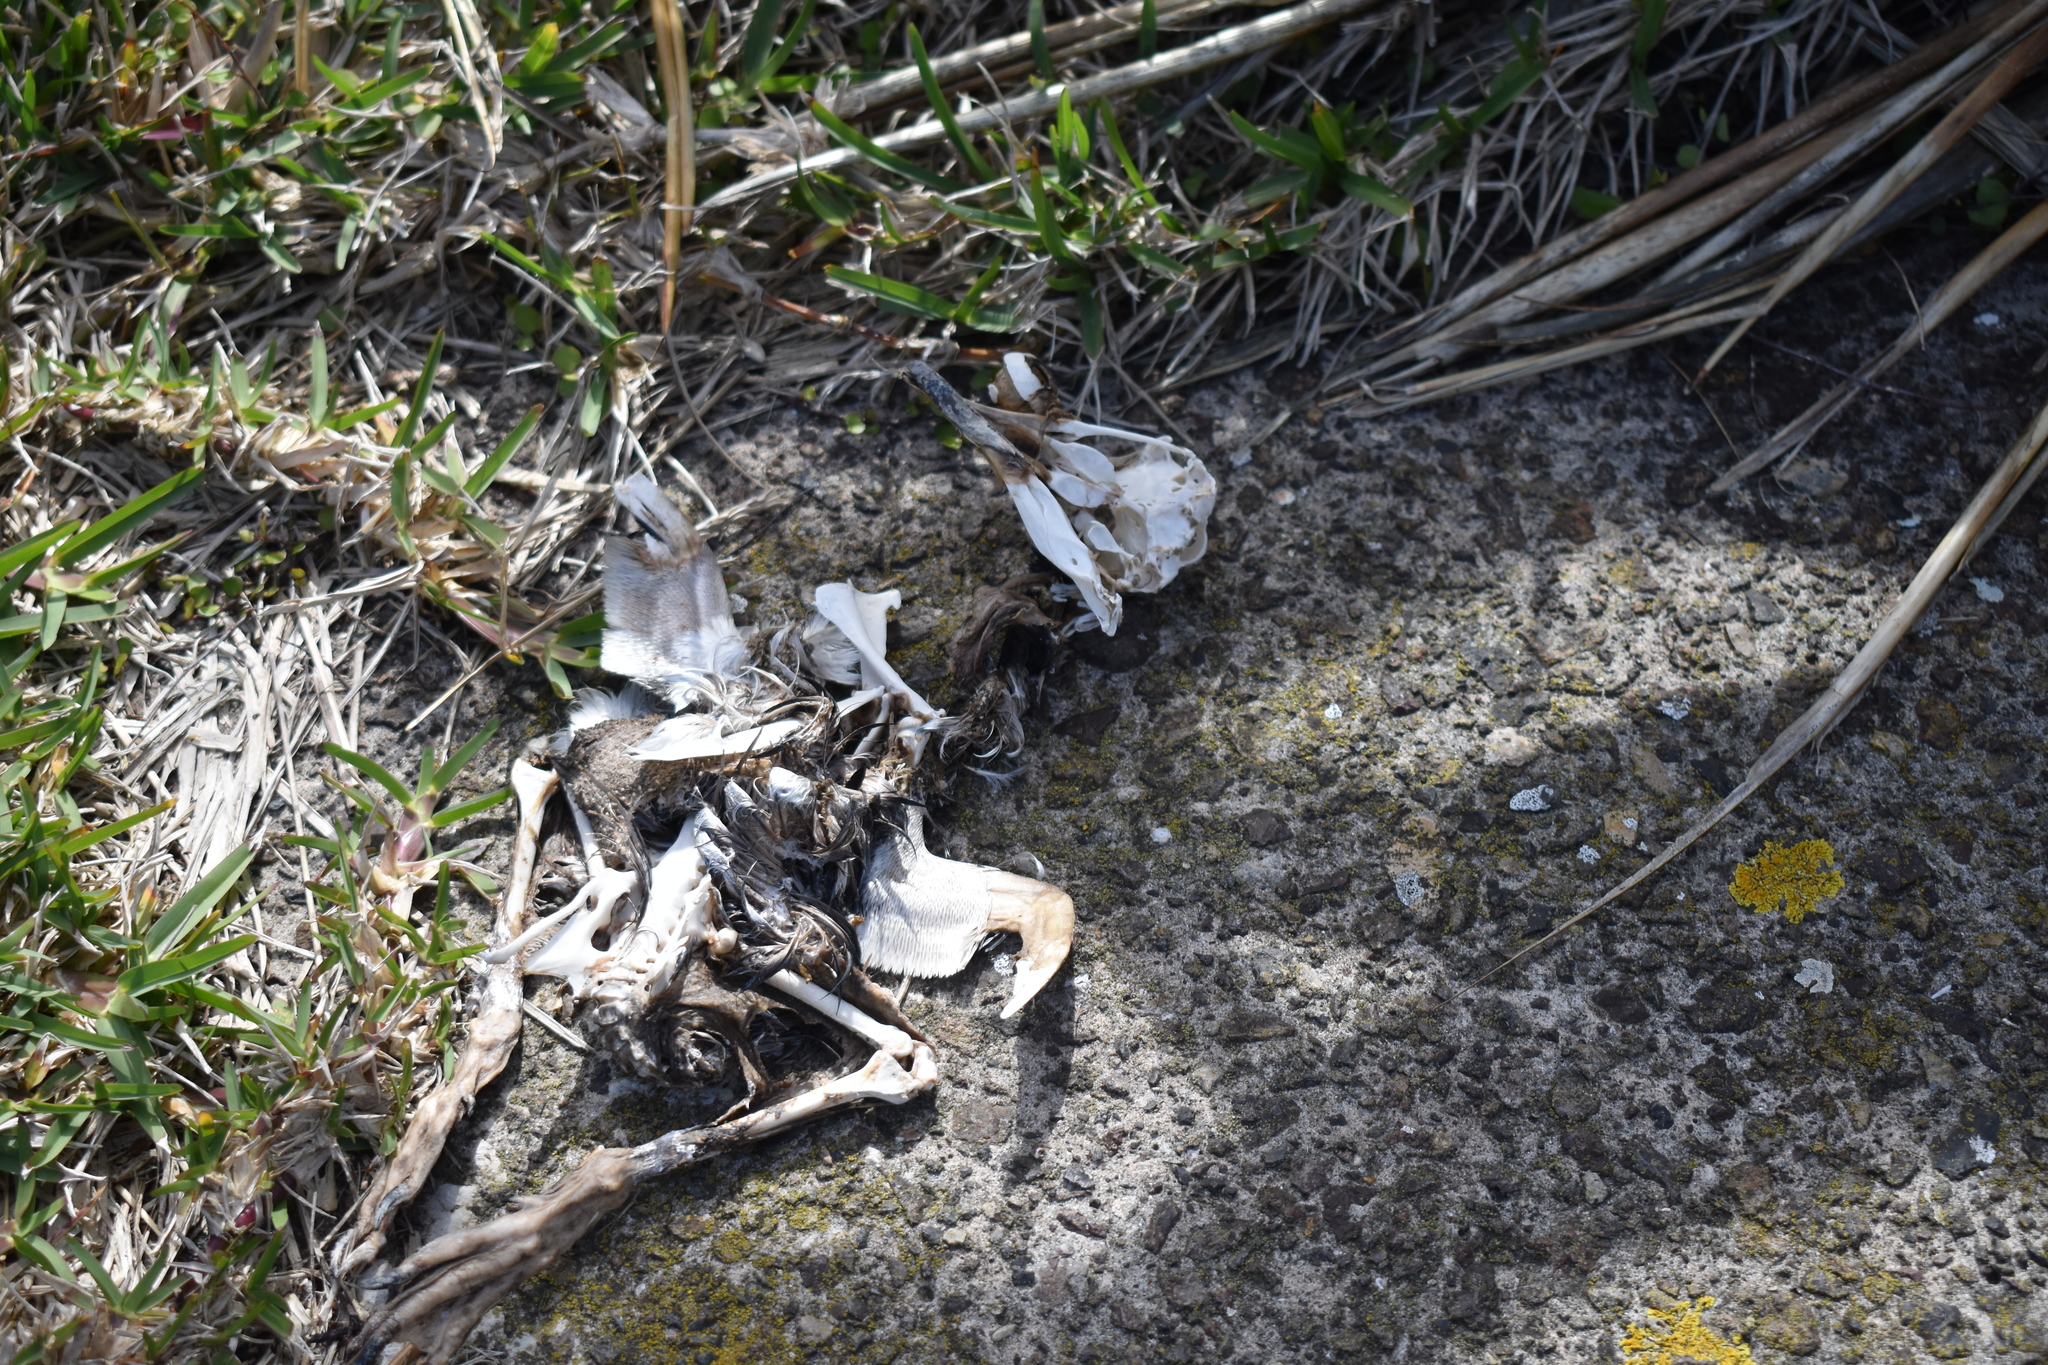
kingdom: Animalia
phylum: Chordata
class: Aves
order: Sphenisciformes
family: Spheniscidae
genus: Eudyptula
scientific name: Eudyptula minor
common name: Little penguin
